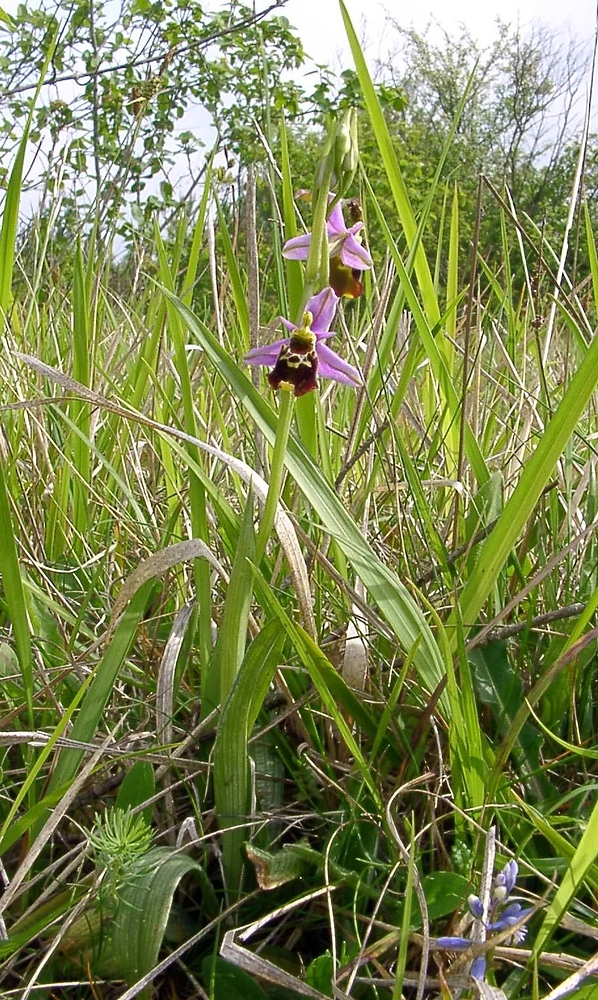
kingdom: Plantae
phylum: Tracheophyta
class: Liliopsida
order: Asparagales
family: Orchidaceae
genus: Ophrys
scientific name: Ophrys holosericea
